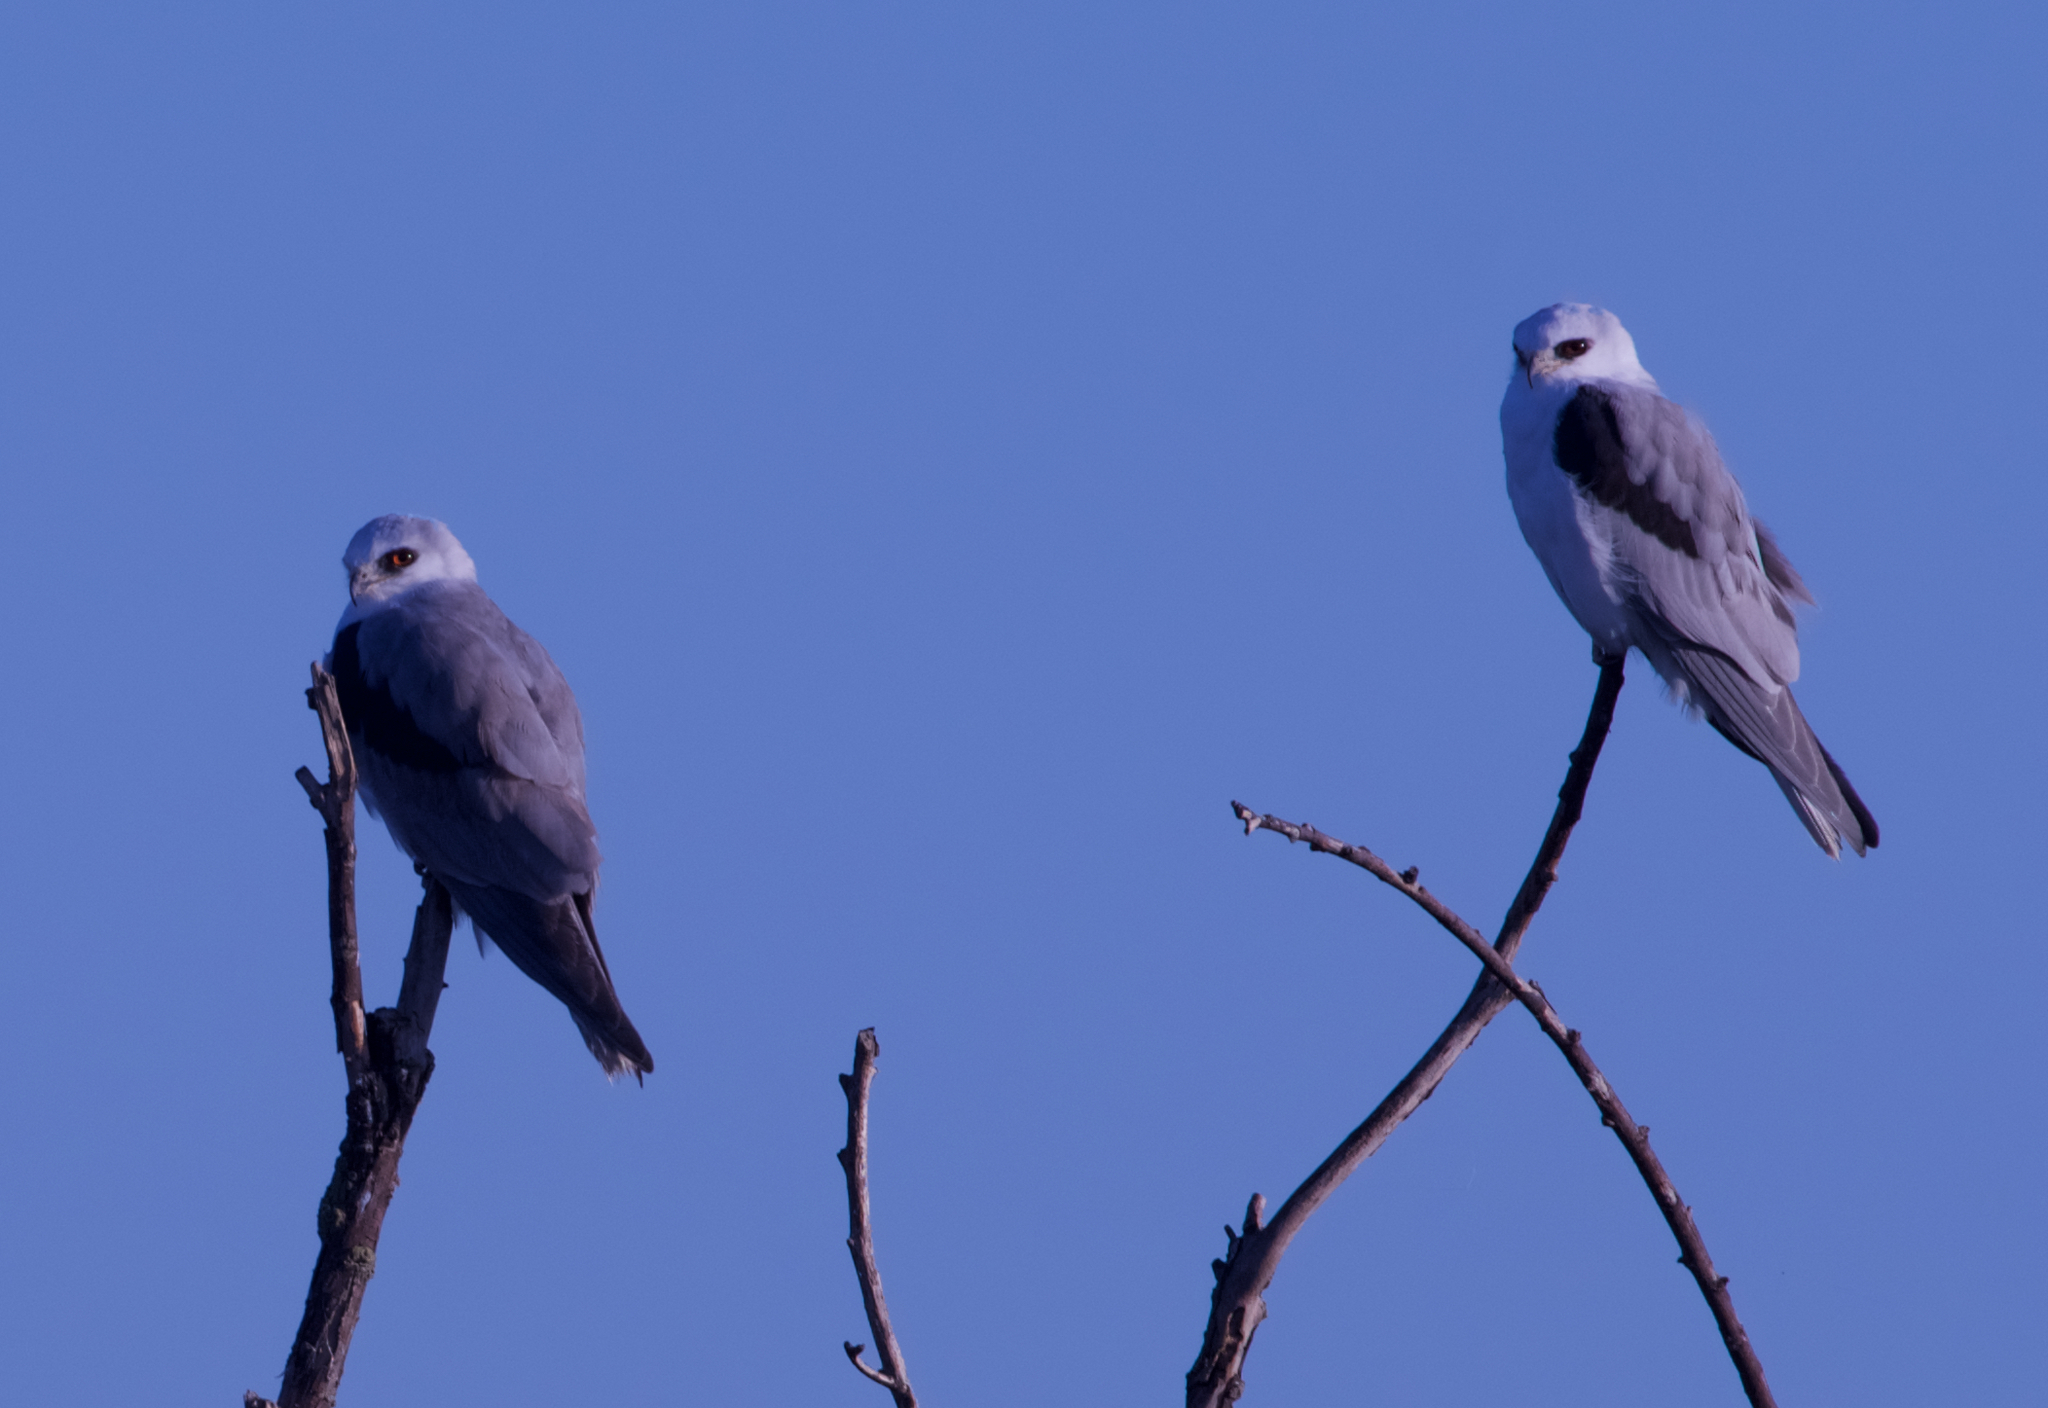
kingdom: Animalia
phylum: Chordata
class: Aves
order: Accipitriformes
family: Accipitridae
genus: Elanus
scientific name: Elanus leucurus
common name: White-tailed kite
